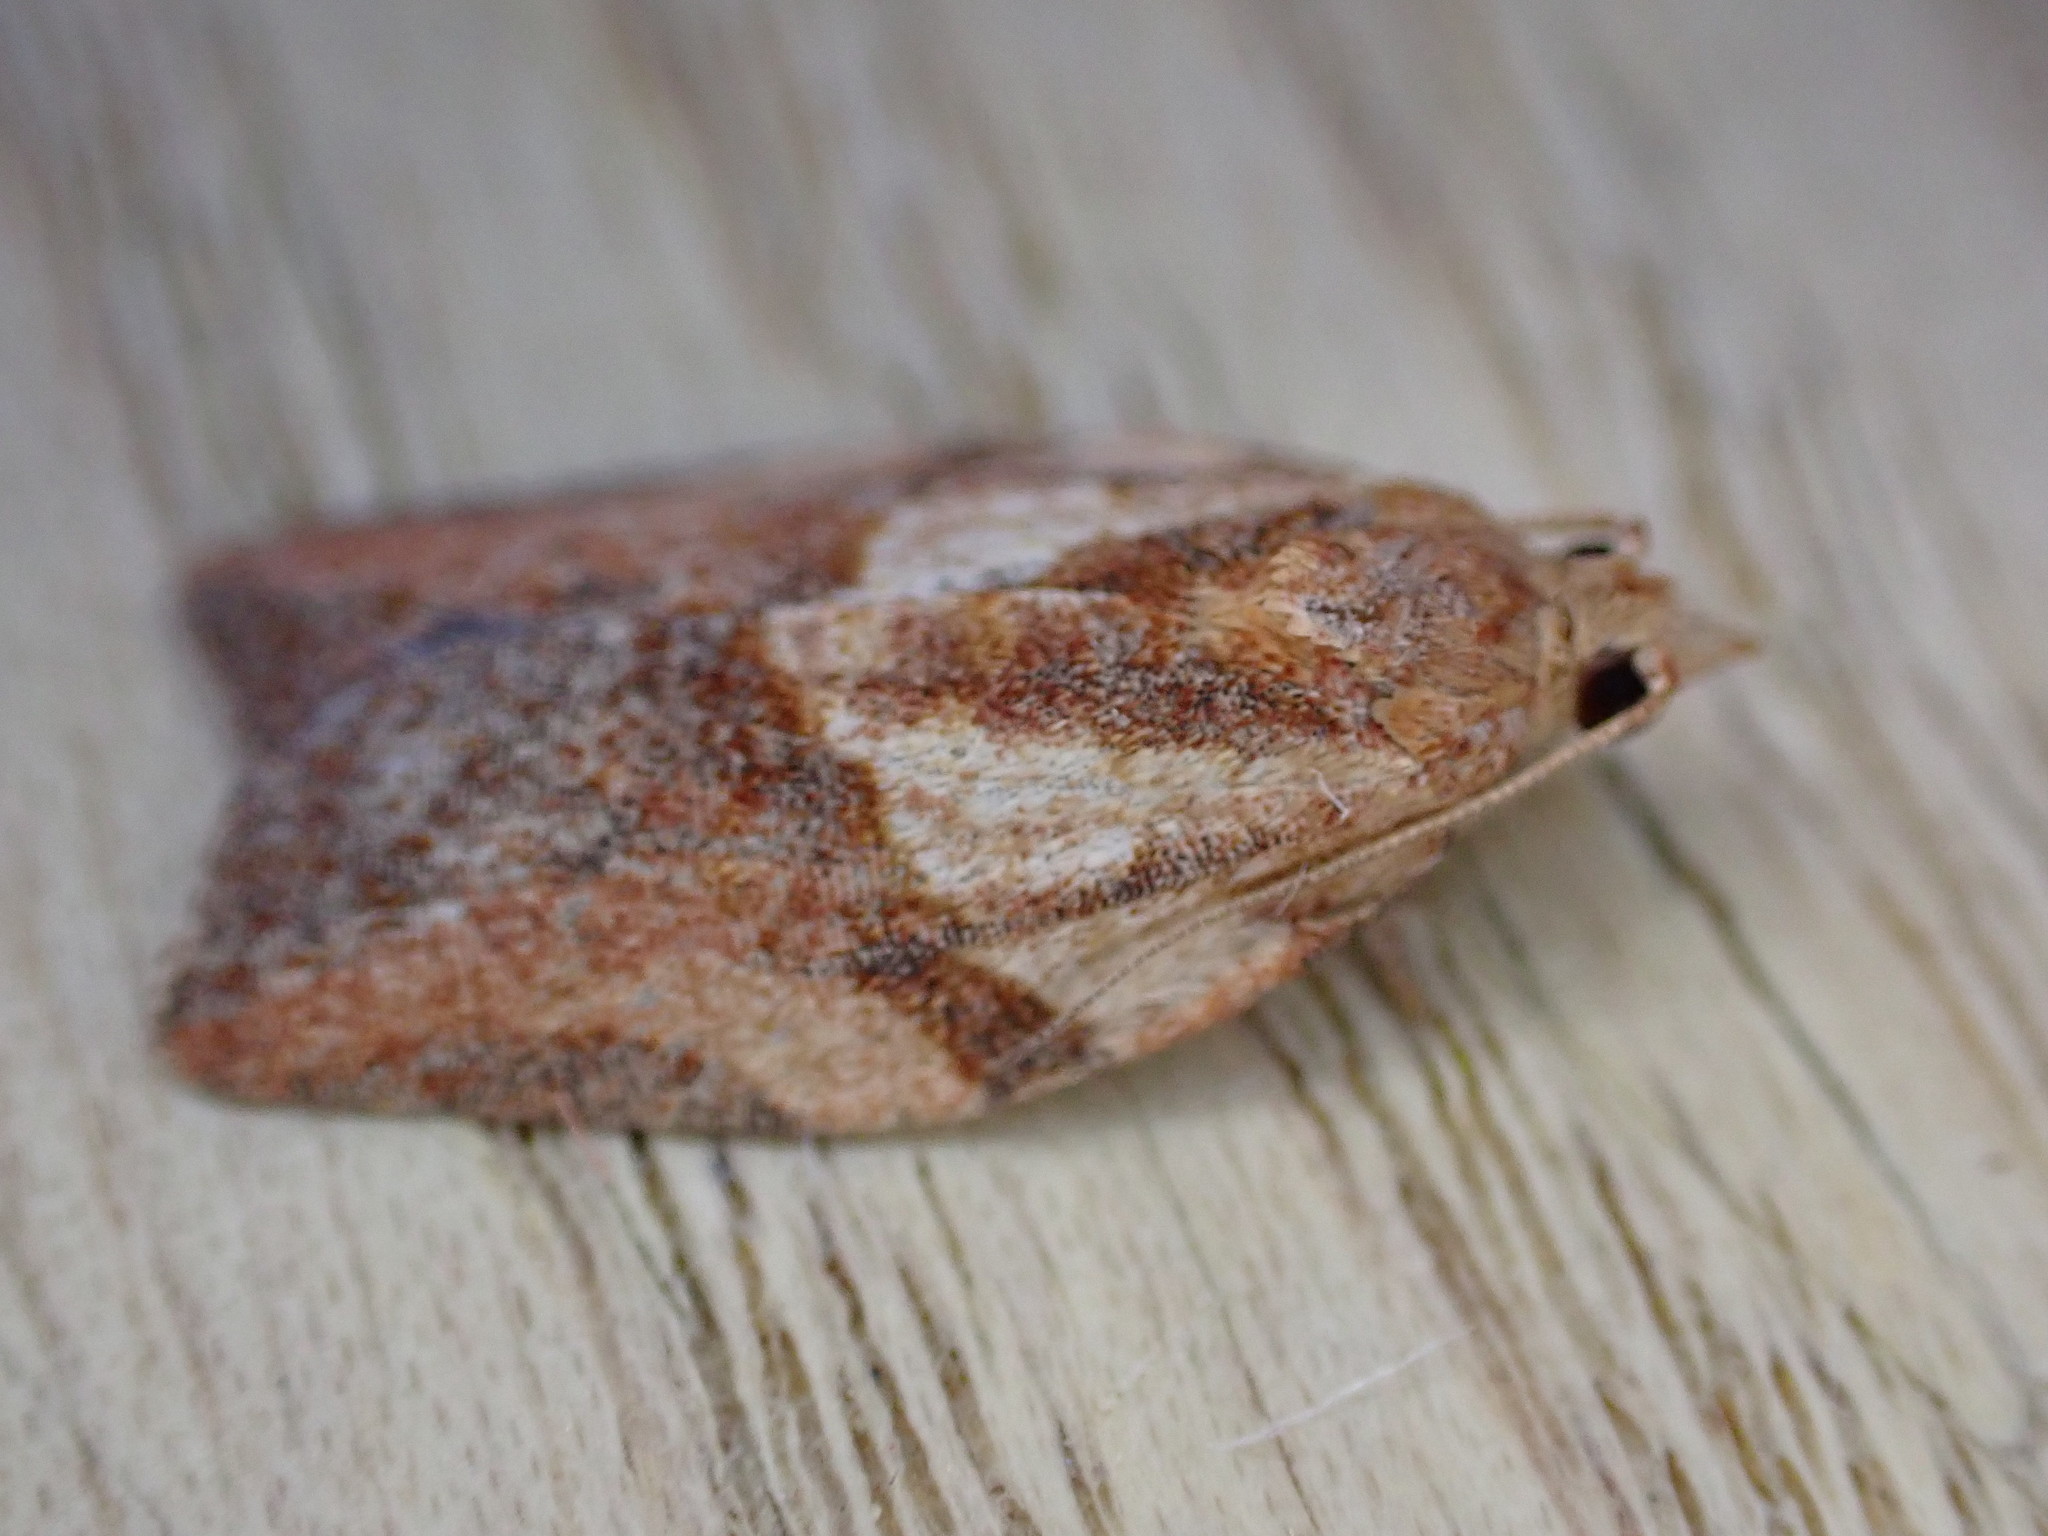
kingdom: Animalia
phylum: Arthropoda
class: Insecta
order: Lepidoptera
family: Tortricidae
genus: Epiphyas
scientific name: Epiphyas postvittana
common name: Light brown apple moth
